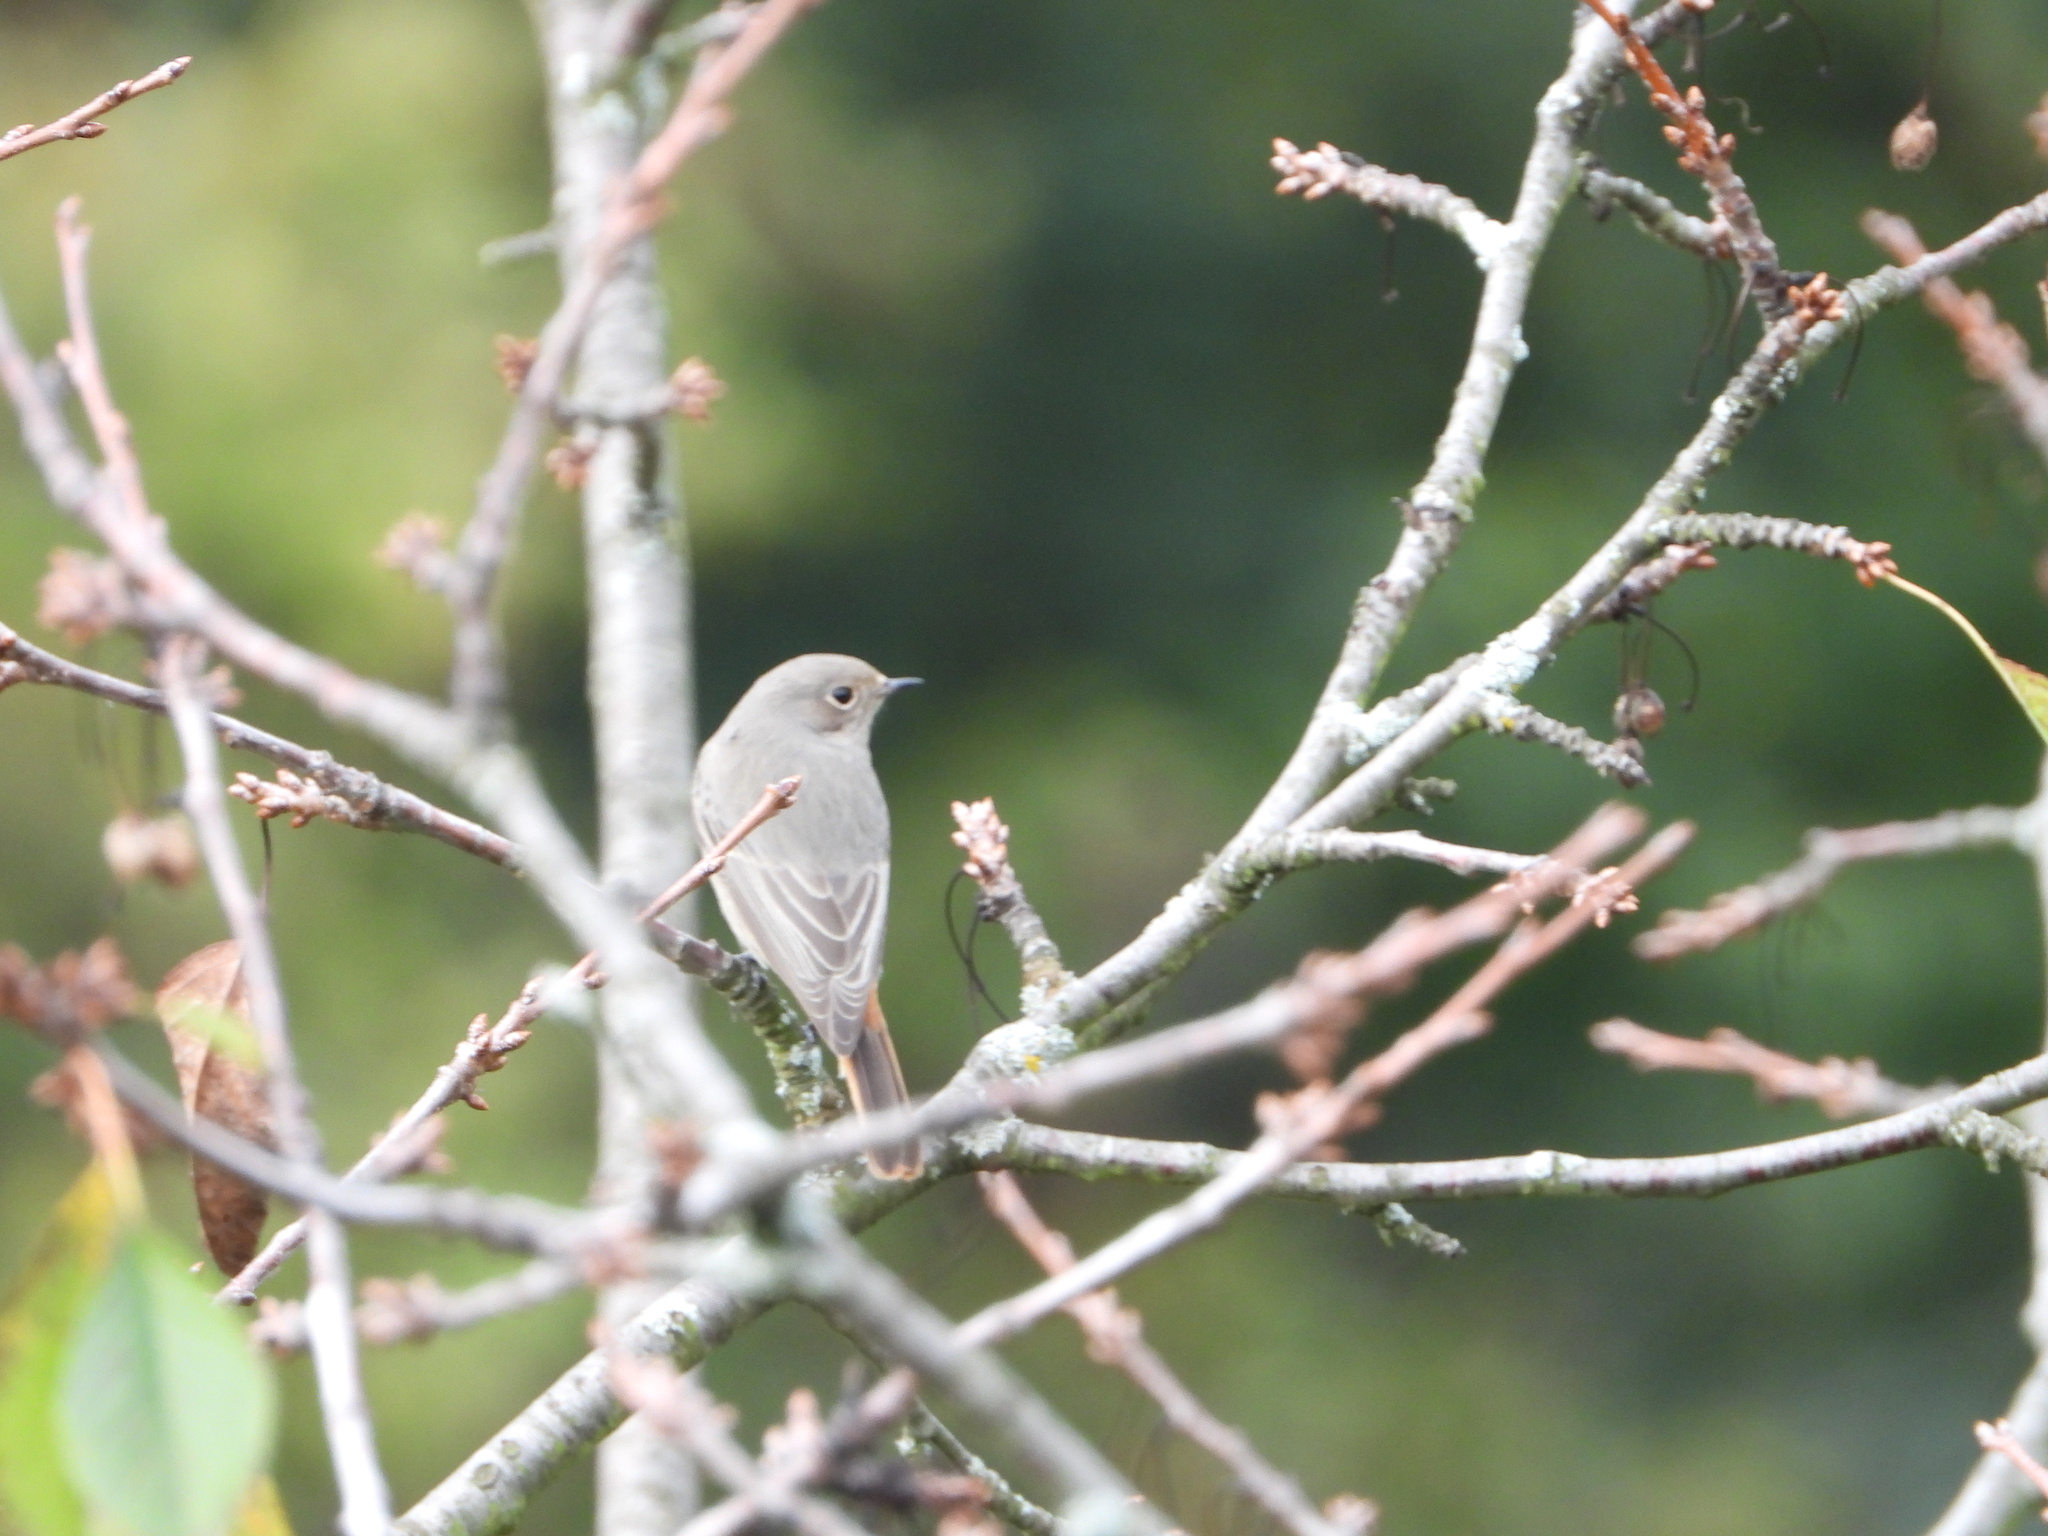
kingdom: Animalia
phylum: Chordata
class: Aves
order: Passeriformes
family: Muscicapidae
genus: Phoenicurus
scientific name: Phoenicurus ochruros
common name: Black redstart
